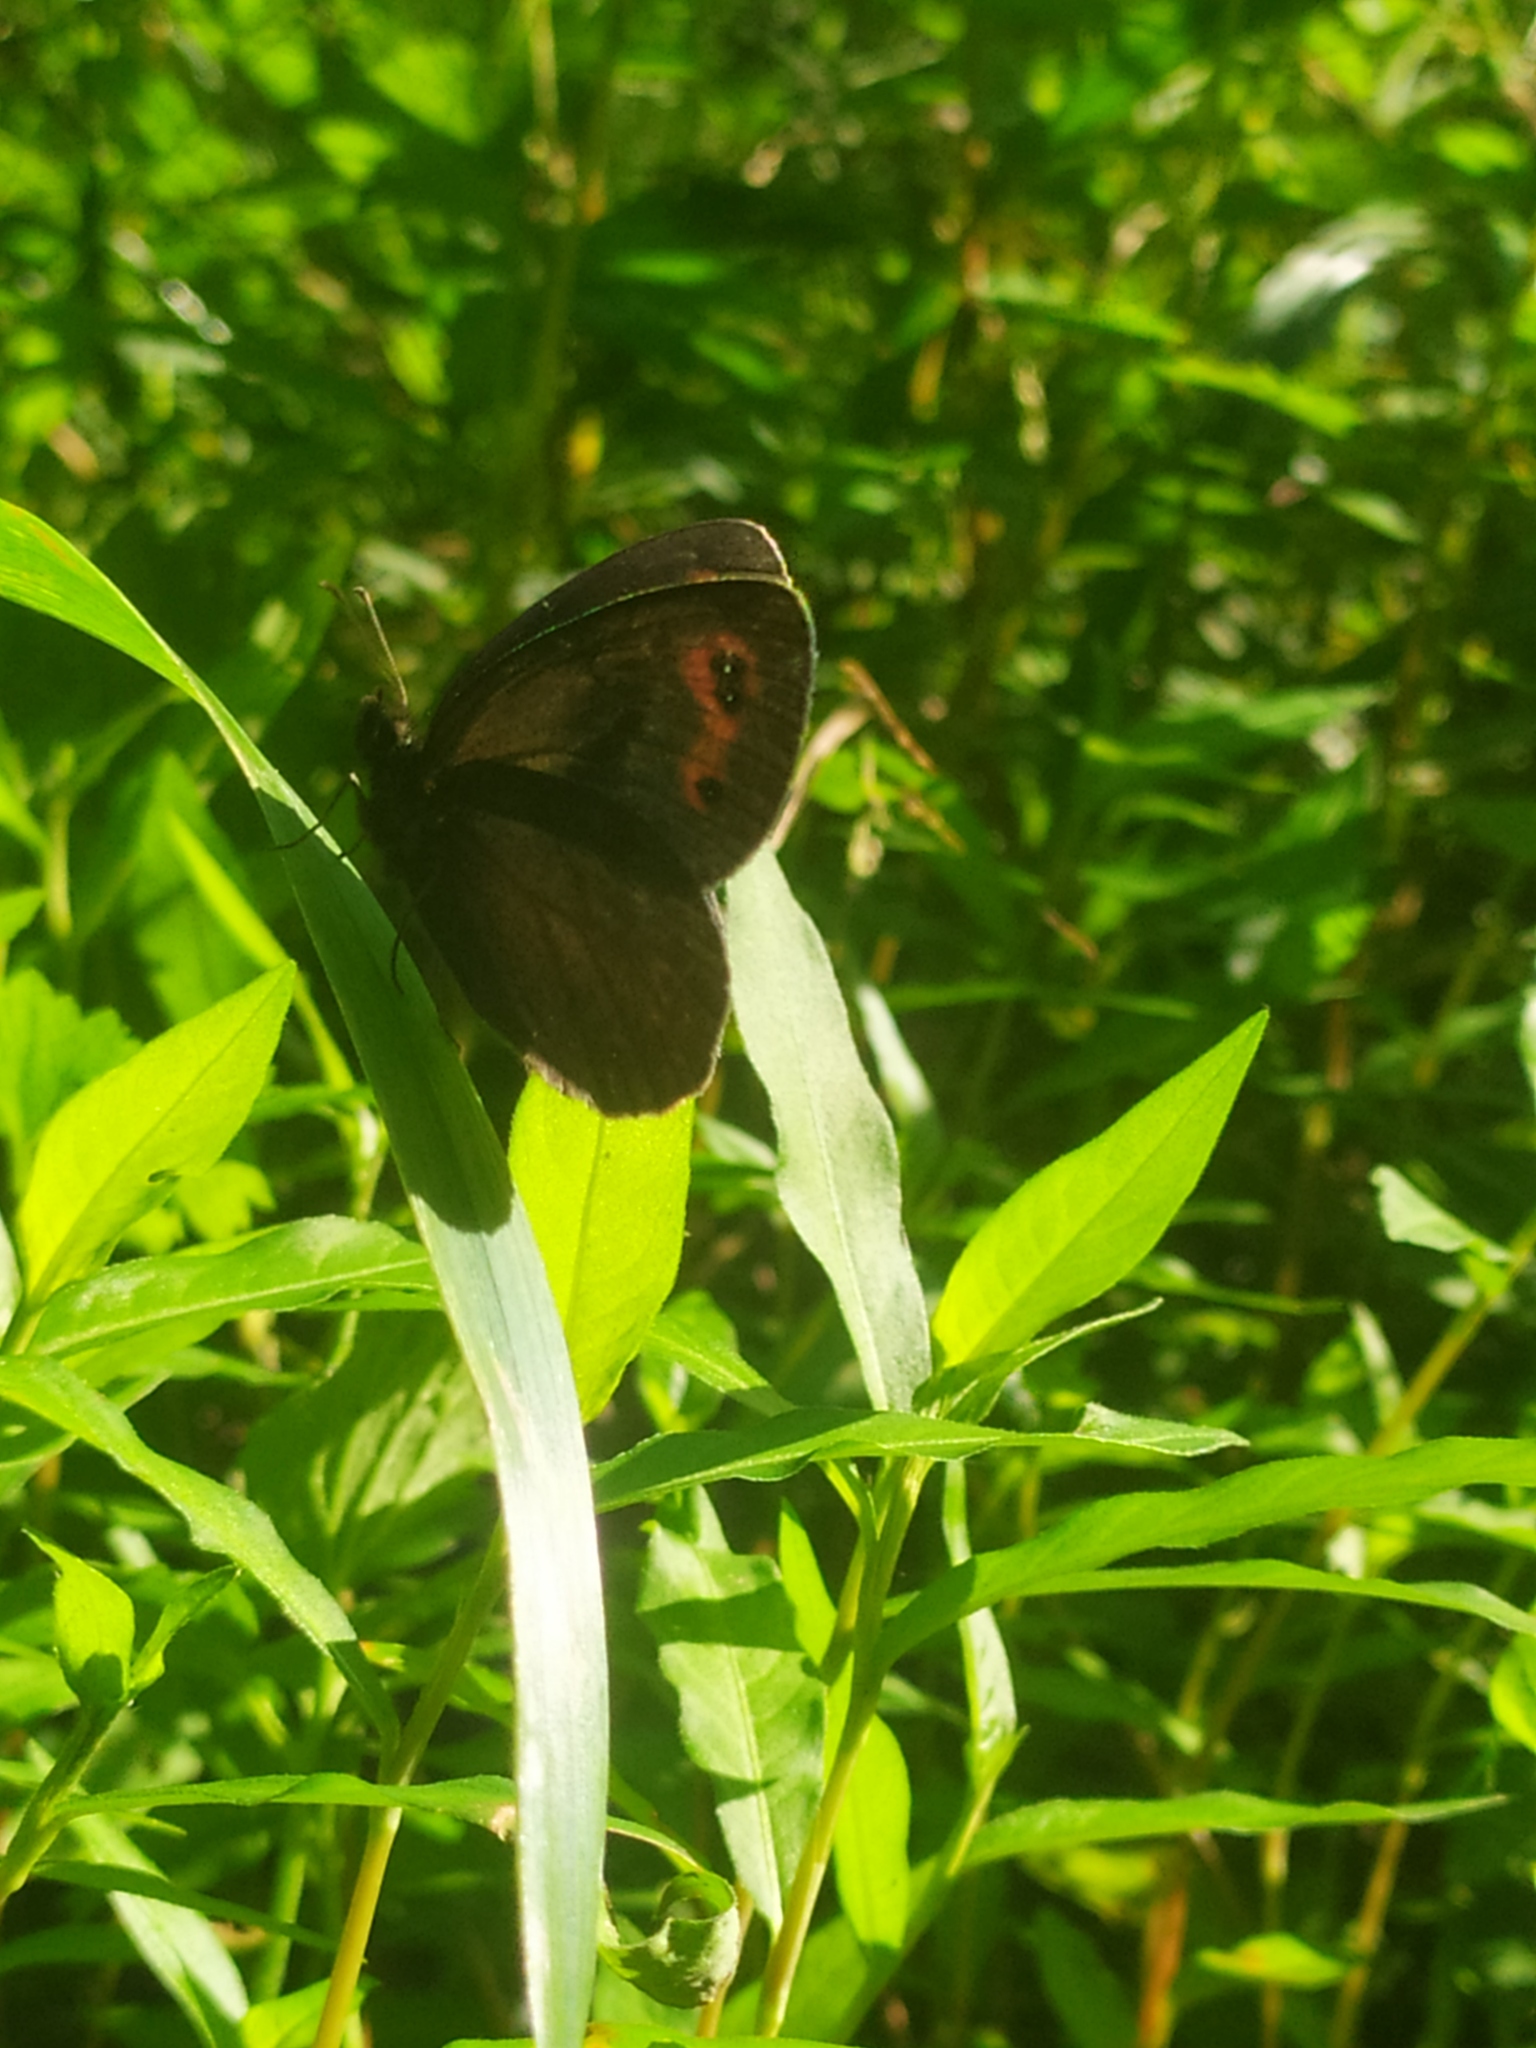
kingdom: Animalia
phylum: Arthropoda
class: Insecta
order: Lepidoptera
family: Nymphalidae
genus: Erebia
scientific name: Erebia aethiops
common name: Scotch argus
